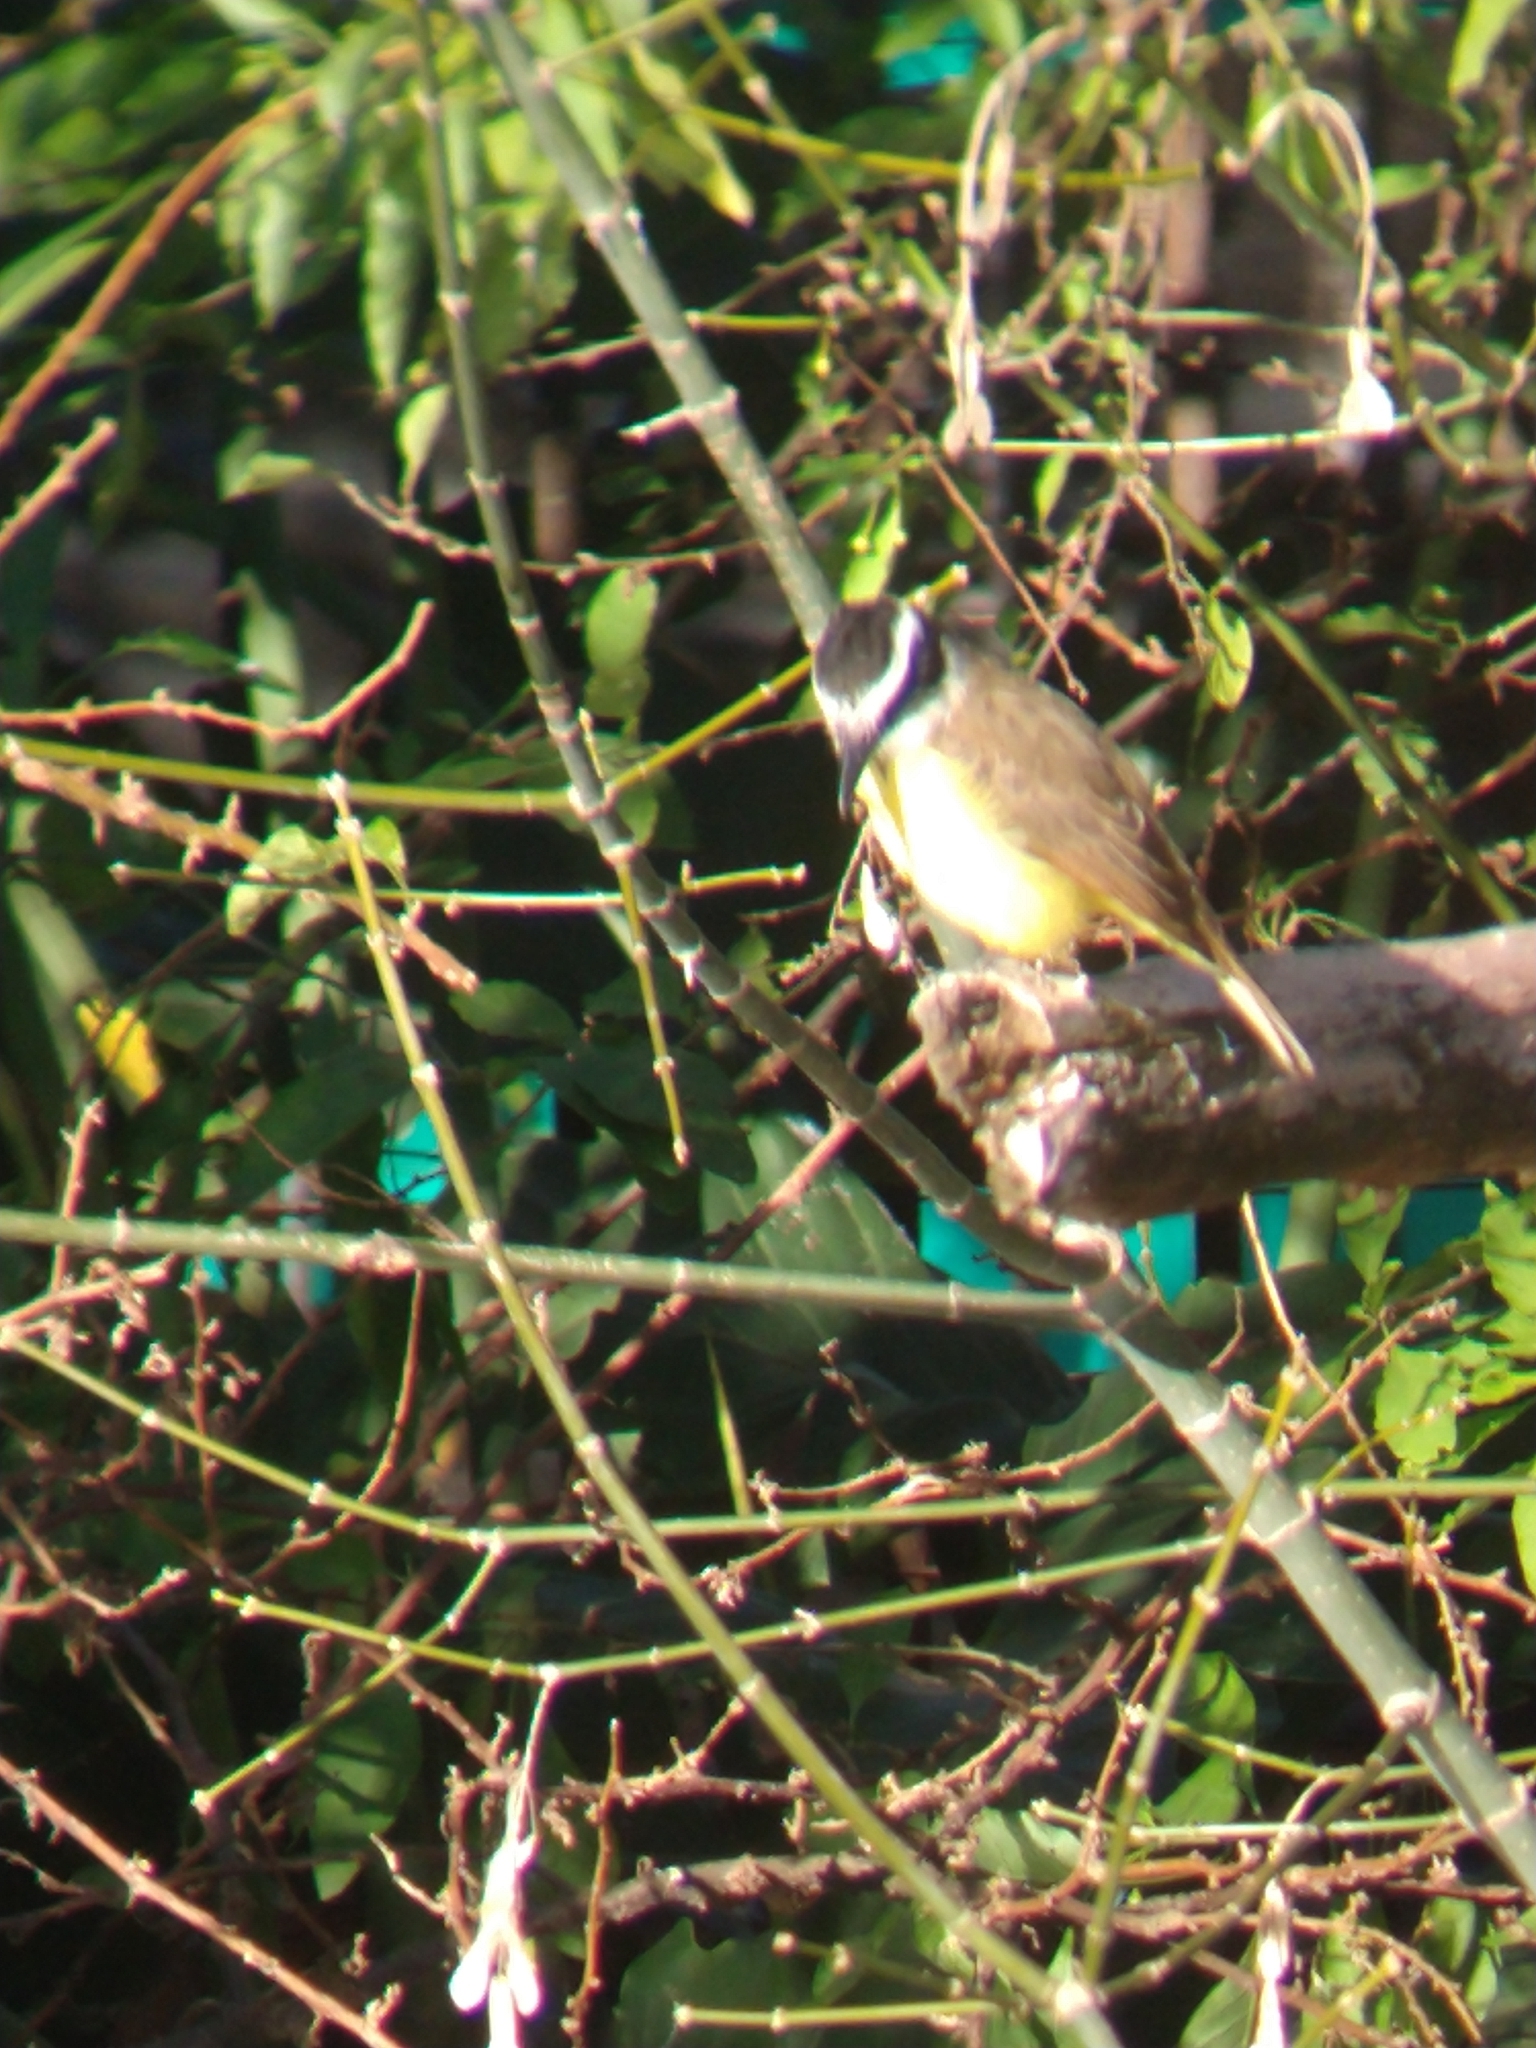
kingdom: Animalia
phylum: Chordata
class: Aves
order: Passeriformes
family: Tyrannidae
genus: Pitangus
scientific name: Pitangus sulphuratus
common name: Great kiskadee
